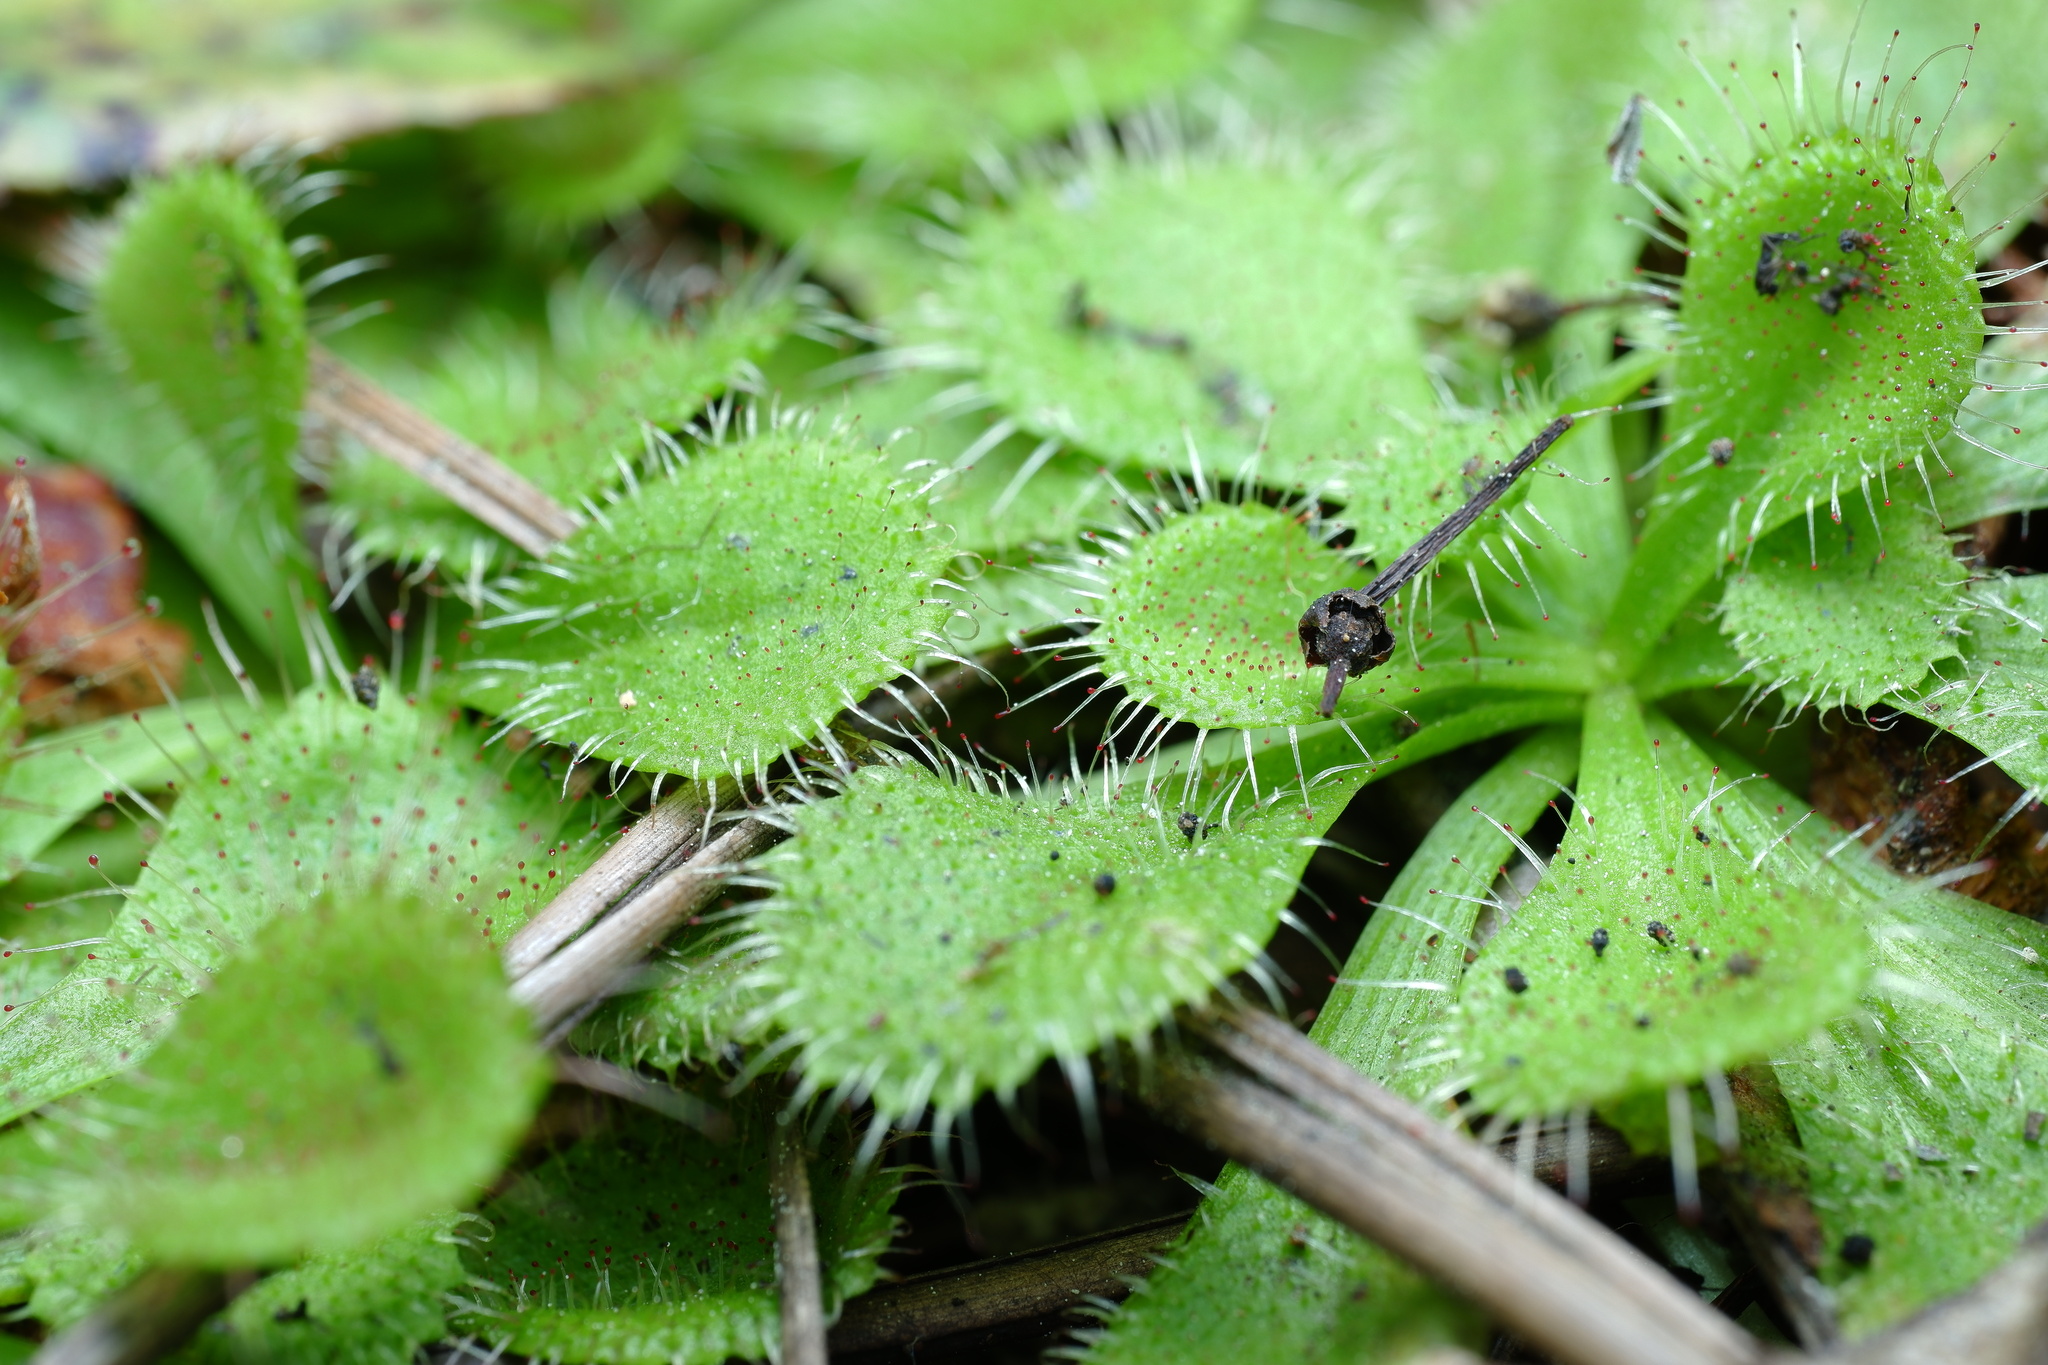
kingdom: Plantae
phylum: Tracheophyta
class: Magnoliopsida
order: Caryophyllales
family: Droseraceae
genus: Drosera
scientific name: Drosera aberrans
